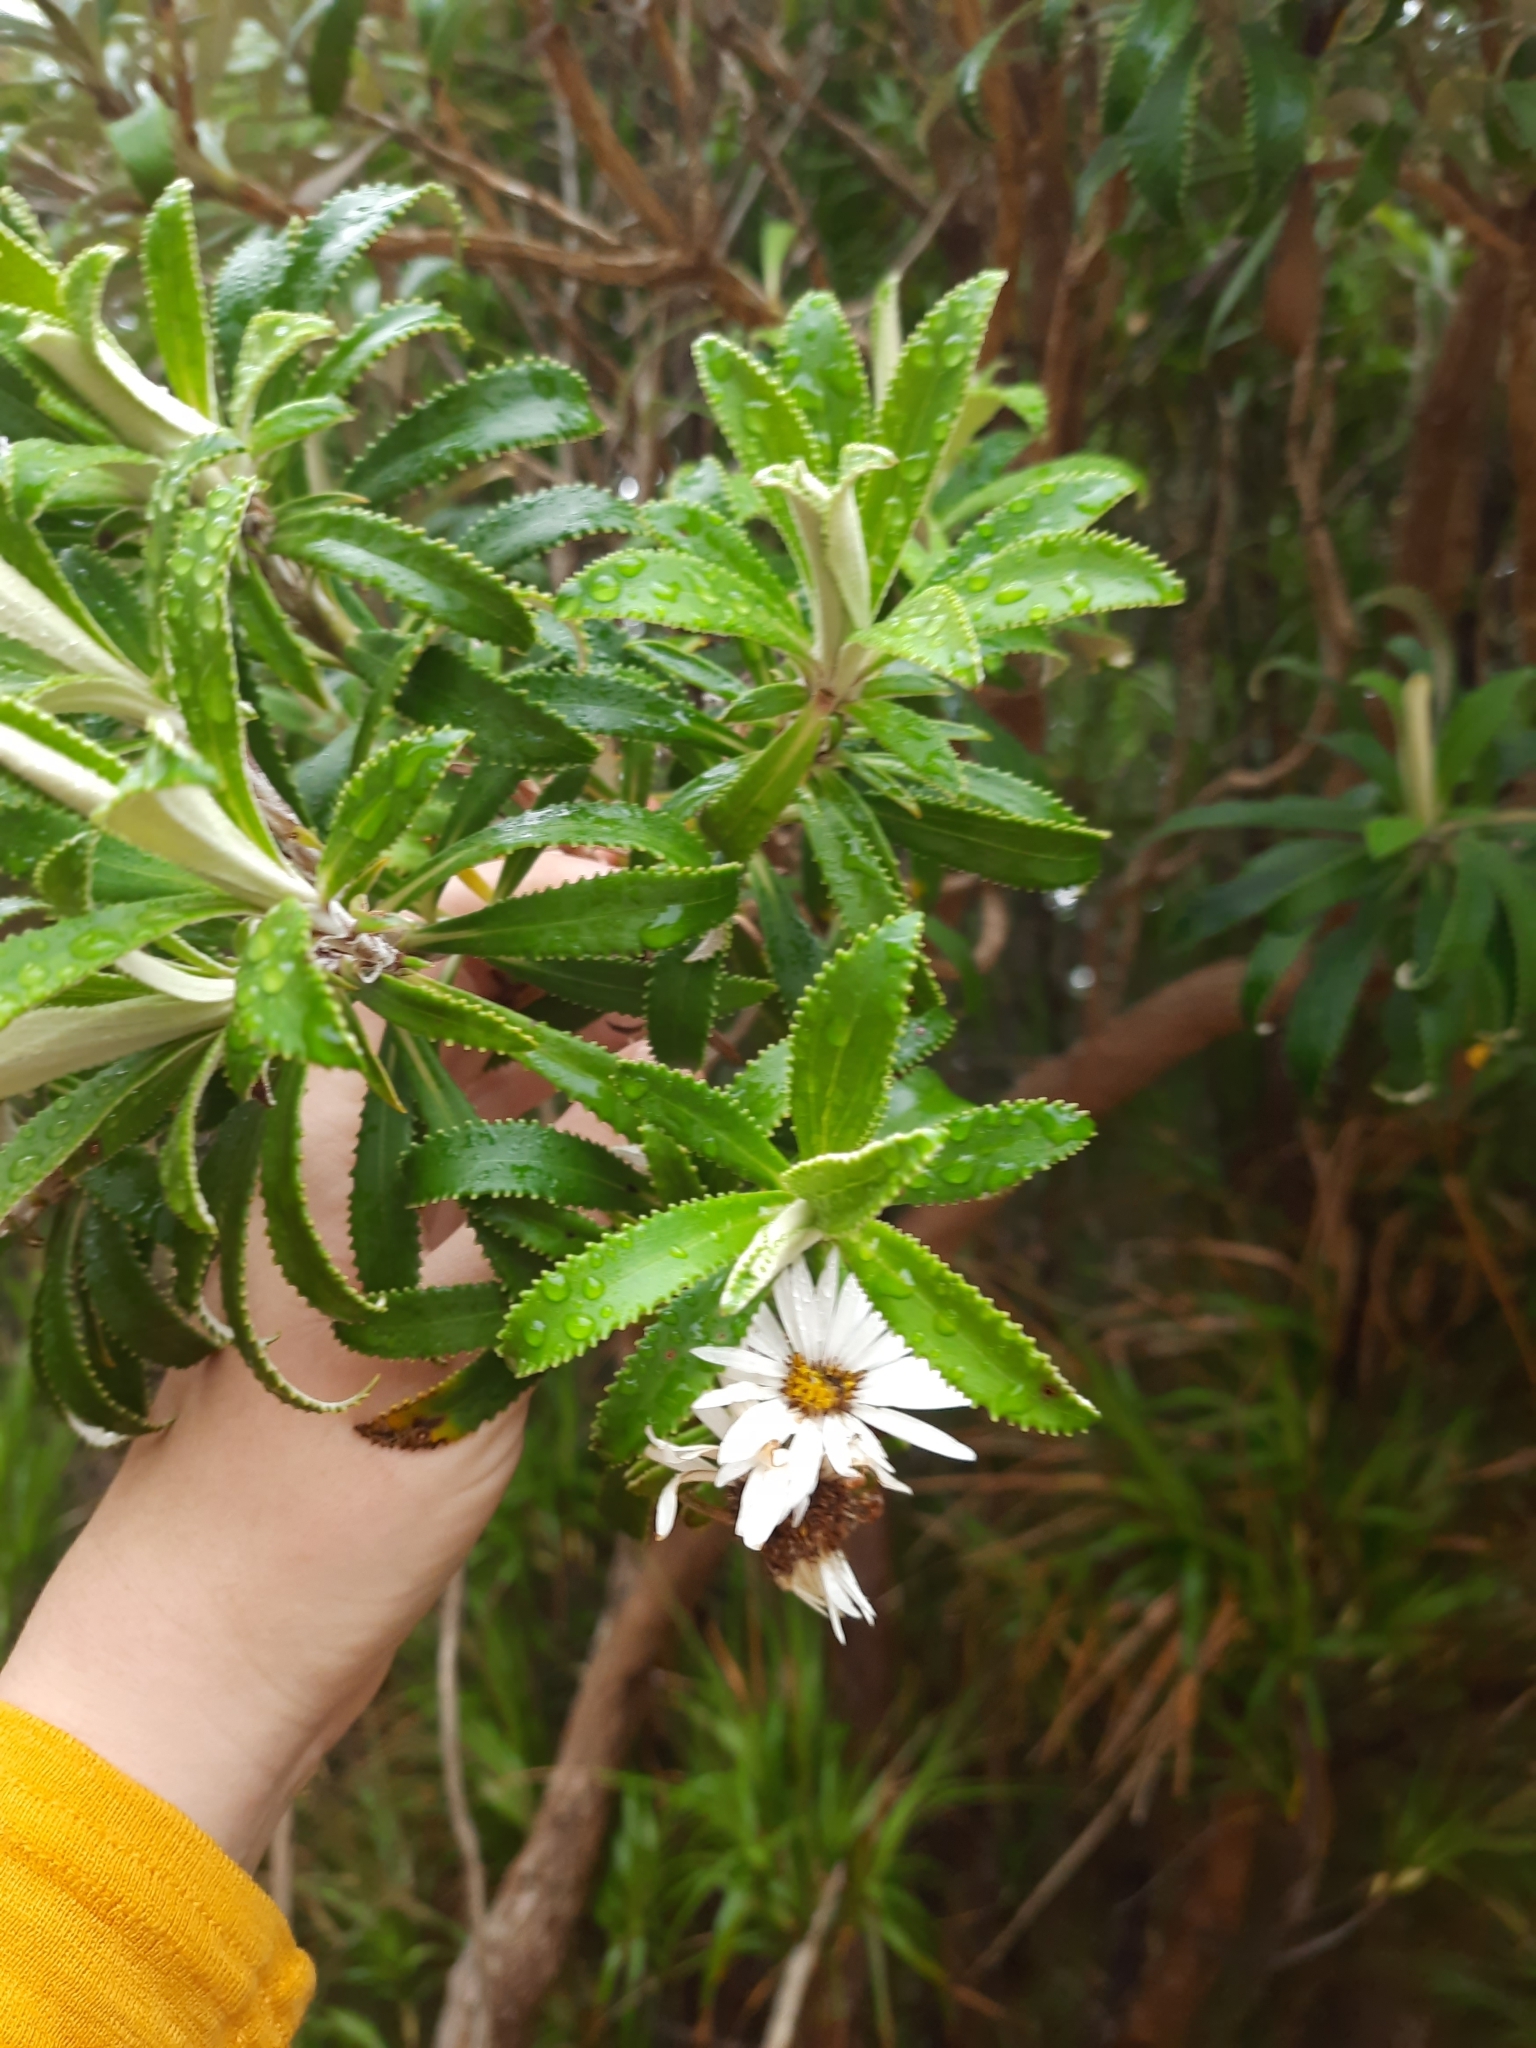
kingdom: Plantae
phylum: Tracheophyta
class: Magnoliopsida
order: Asterales
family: Asteraceae
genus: Macrolearia
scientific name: Macrolearia oporina
